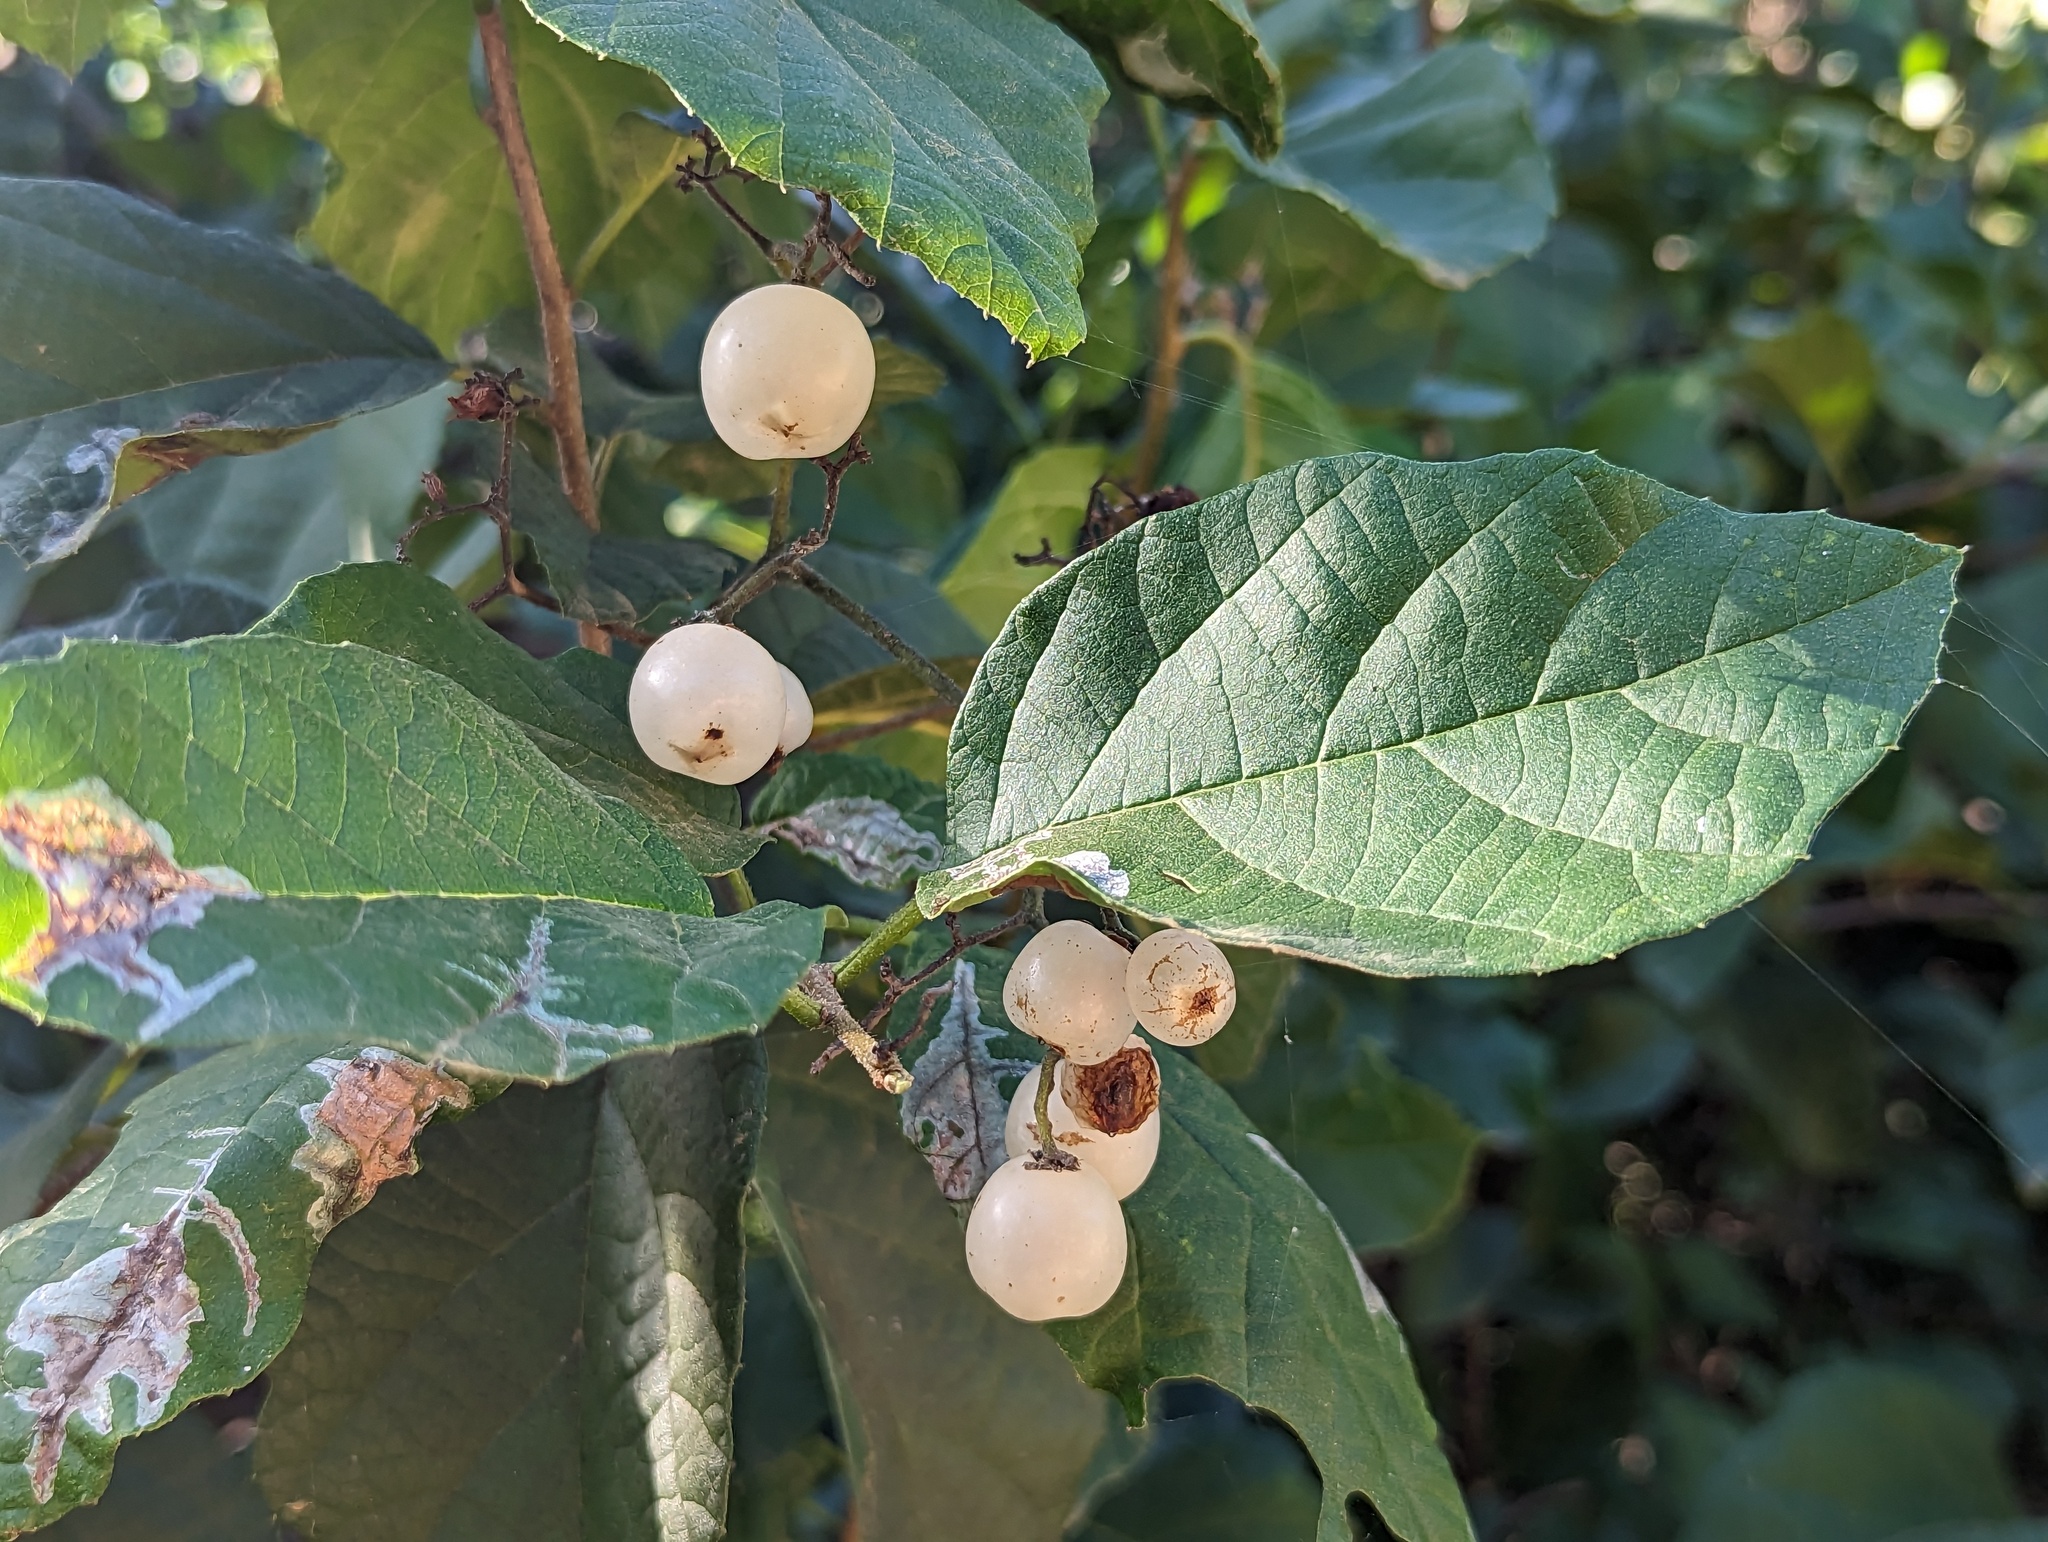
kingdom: Plantae
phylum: Tracheophyta
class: Magnoliopsida
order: Boraginales
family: Cordiaceae
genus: Cordia
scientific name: Cordia dentata
